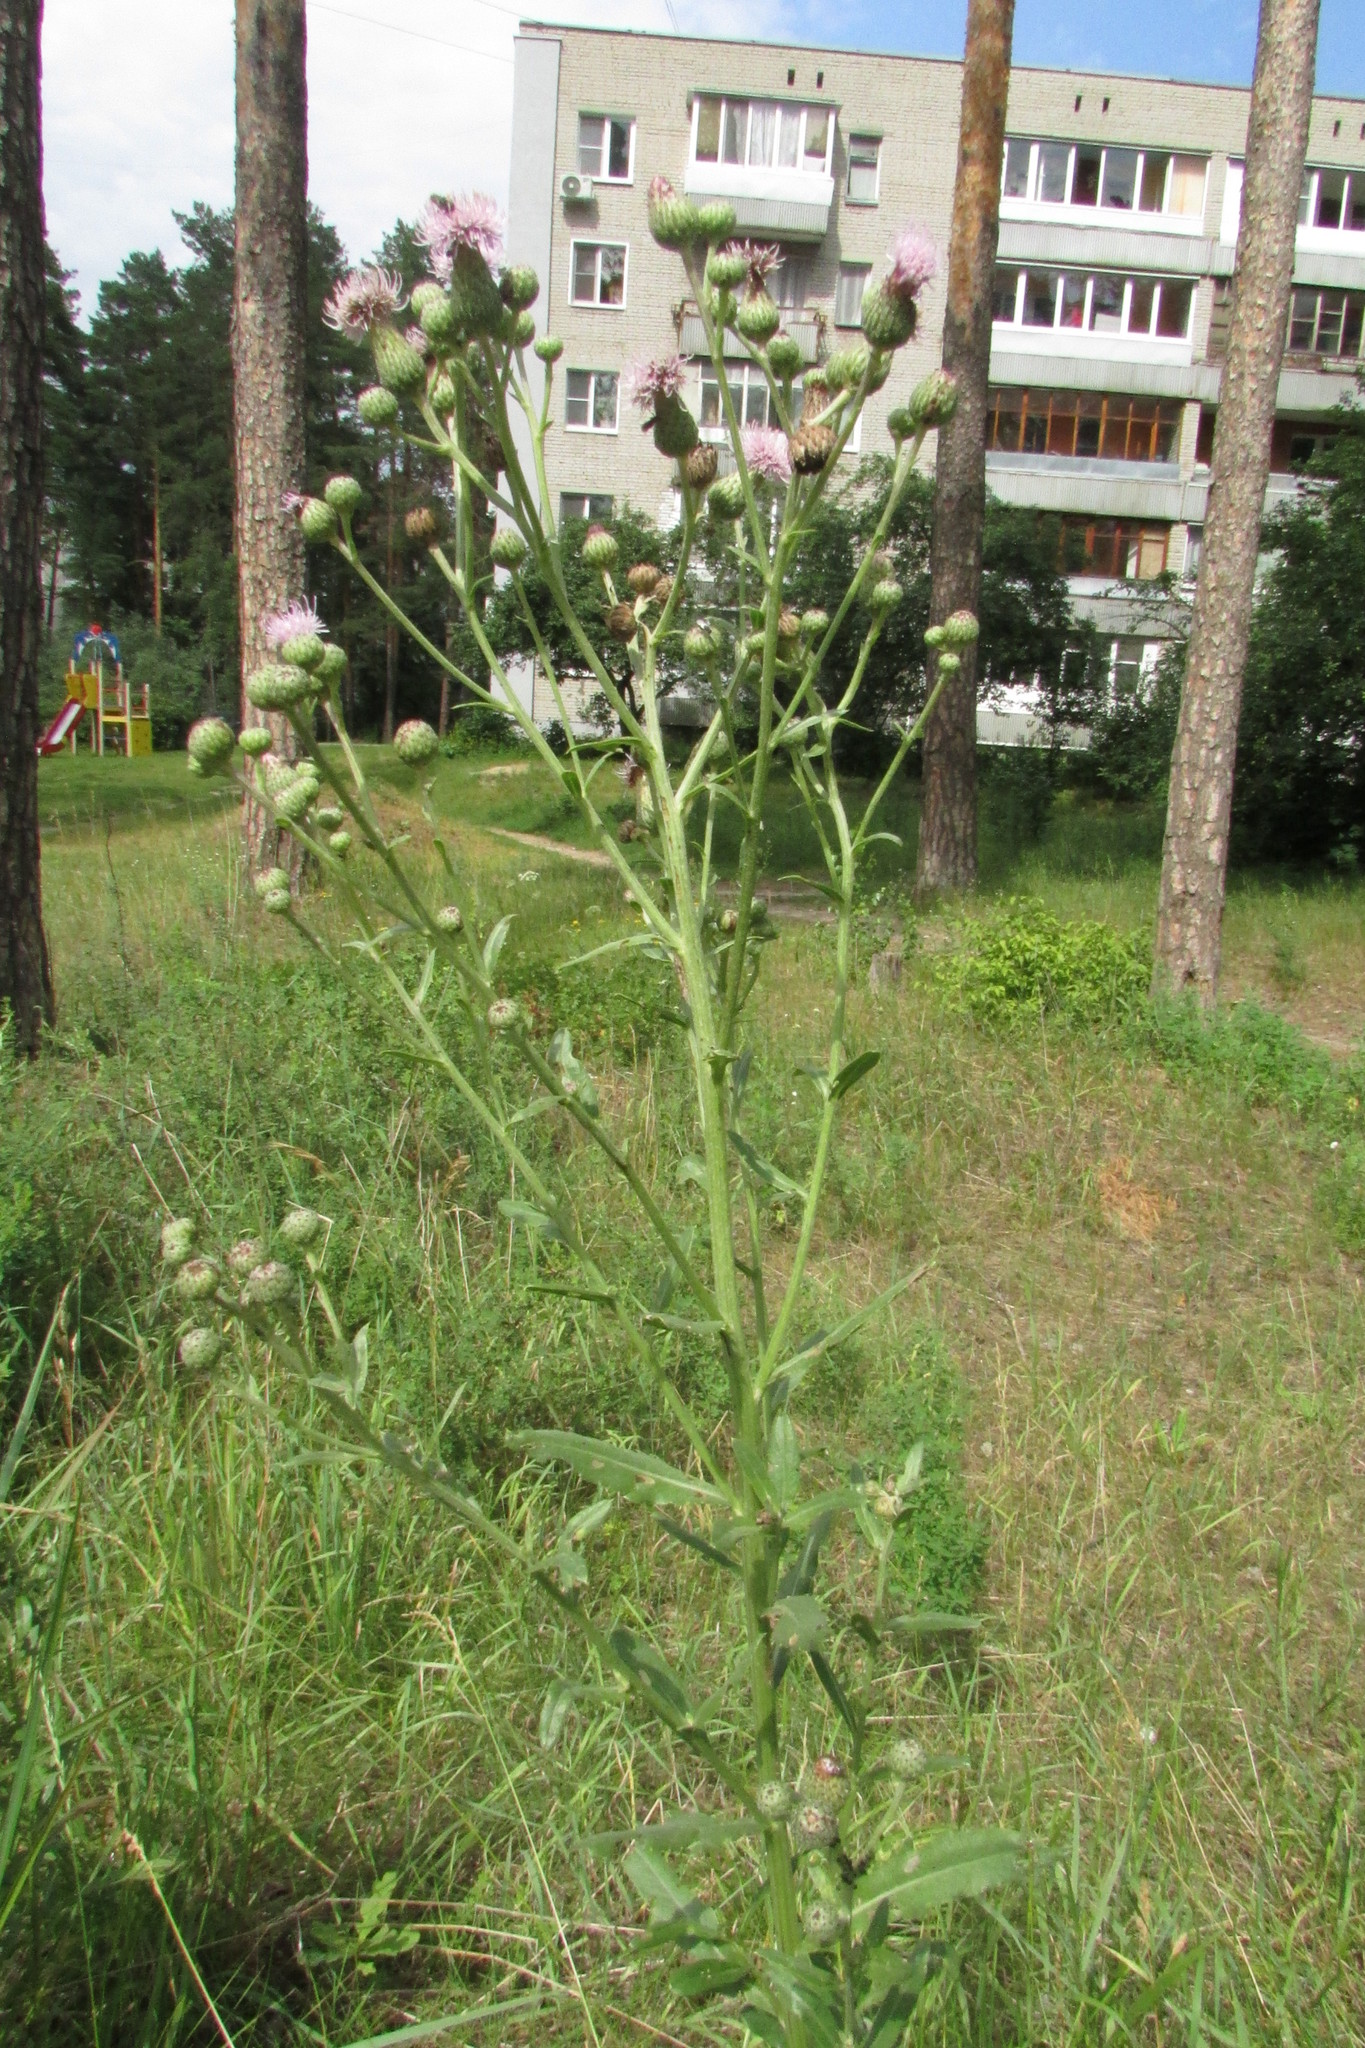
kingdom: Plantae
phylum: Tracheophyta
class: Magnoliopsida
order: Asterales
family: Asteraceae
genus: Cirsium
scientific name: Cirsium arvense
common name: Creeping thistle
